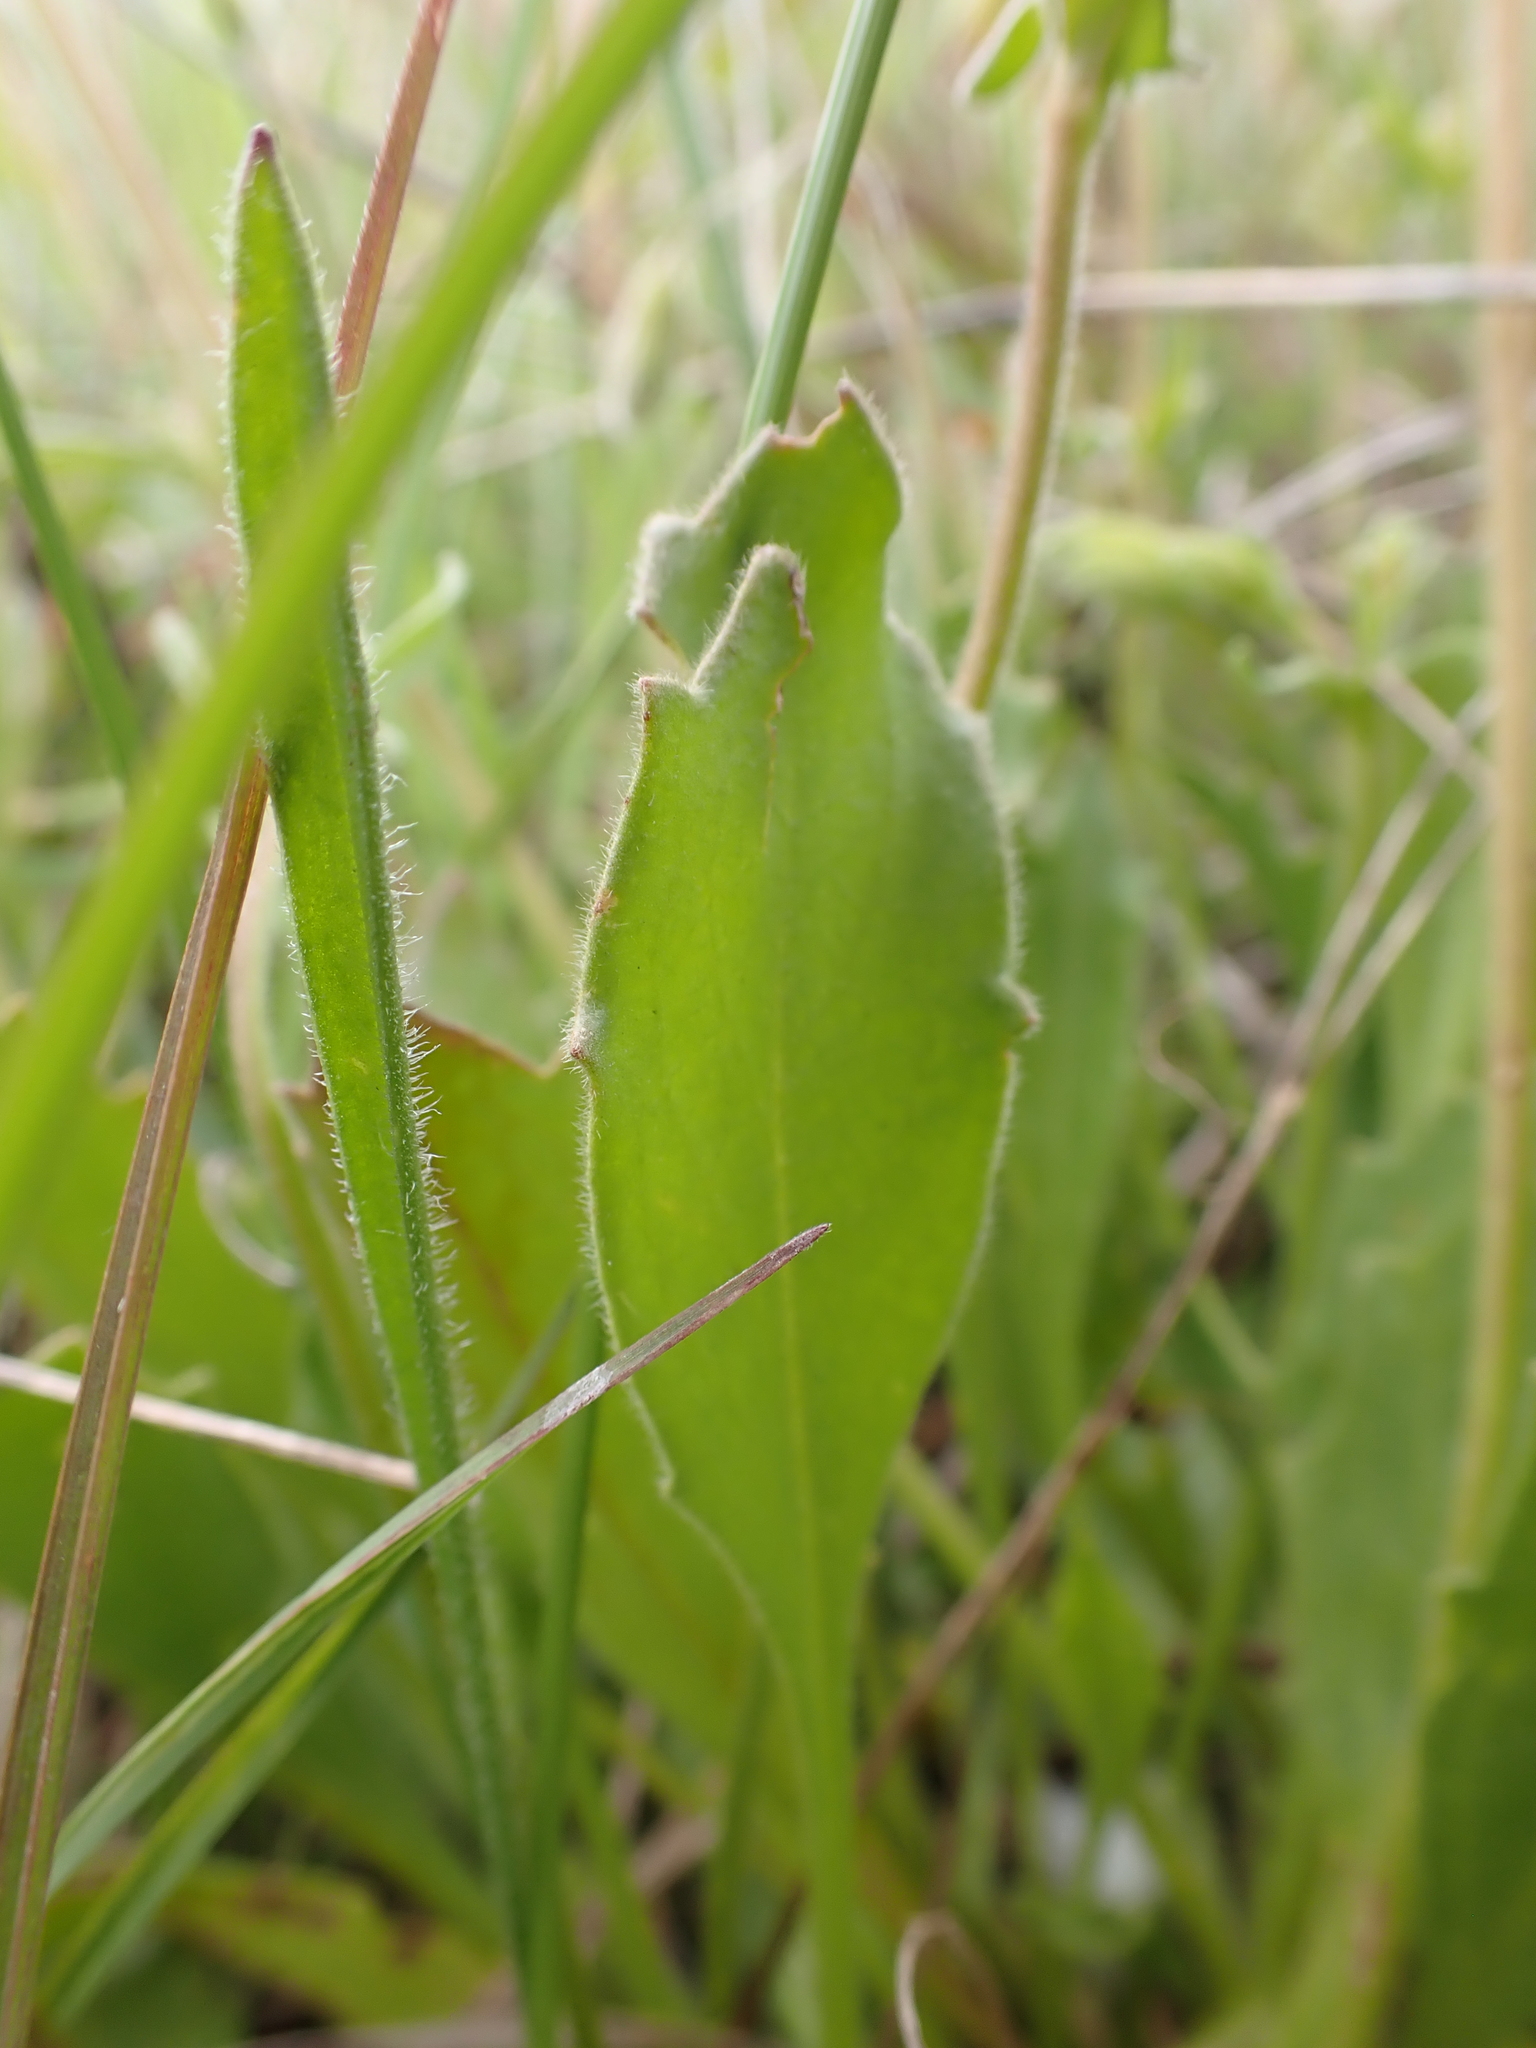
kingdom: Plantae
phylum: Tracheophyta
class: Magnoliopsida
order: Asterales
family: Goodeniaceae
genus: Goodenia
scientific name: Goodenia paradoxa
